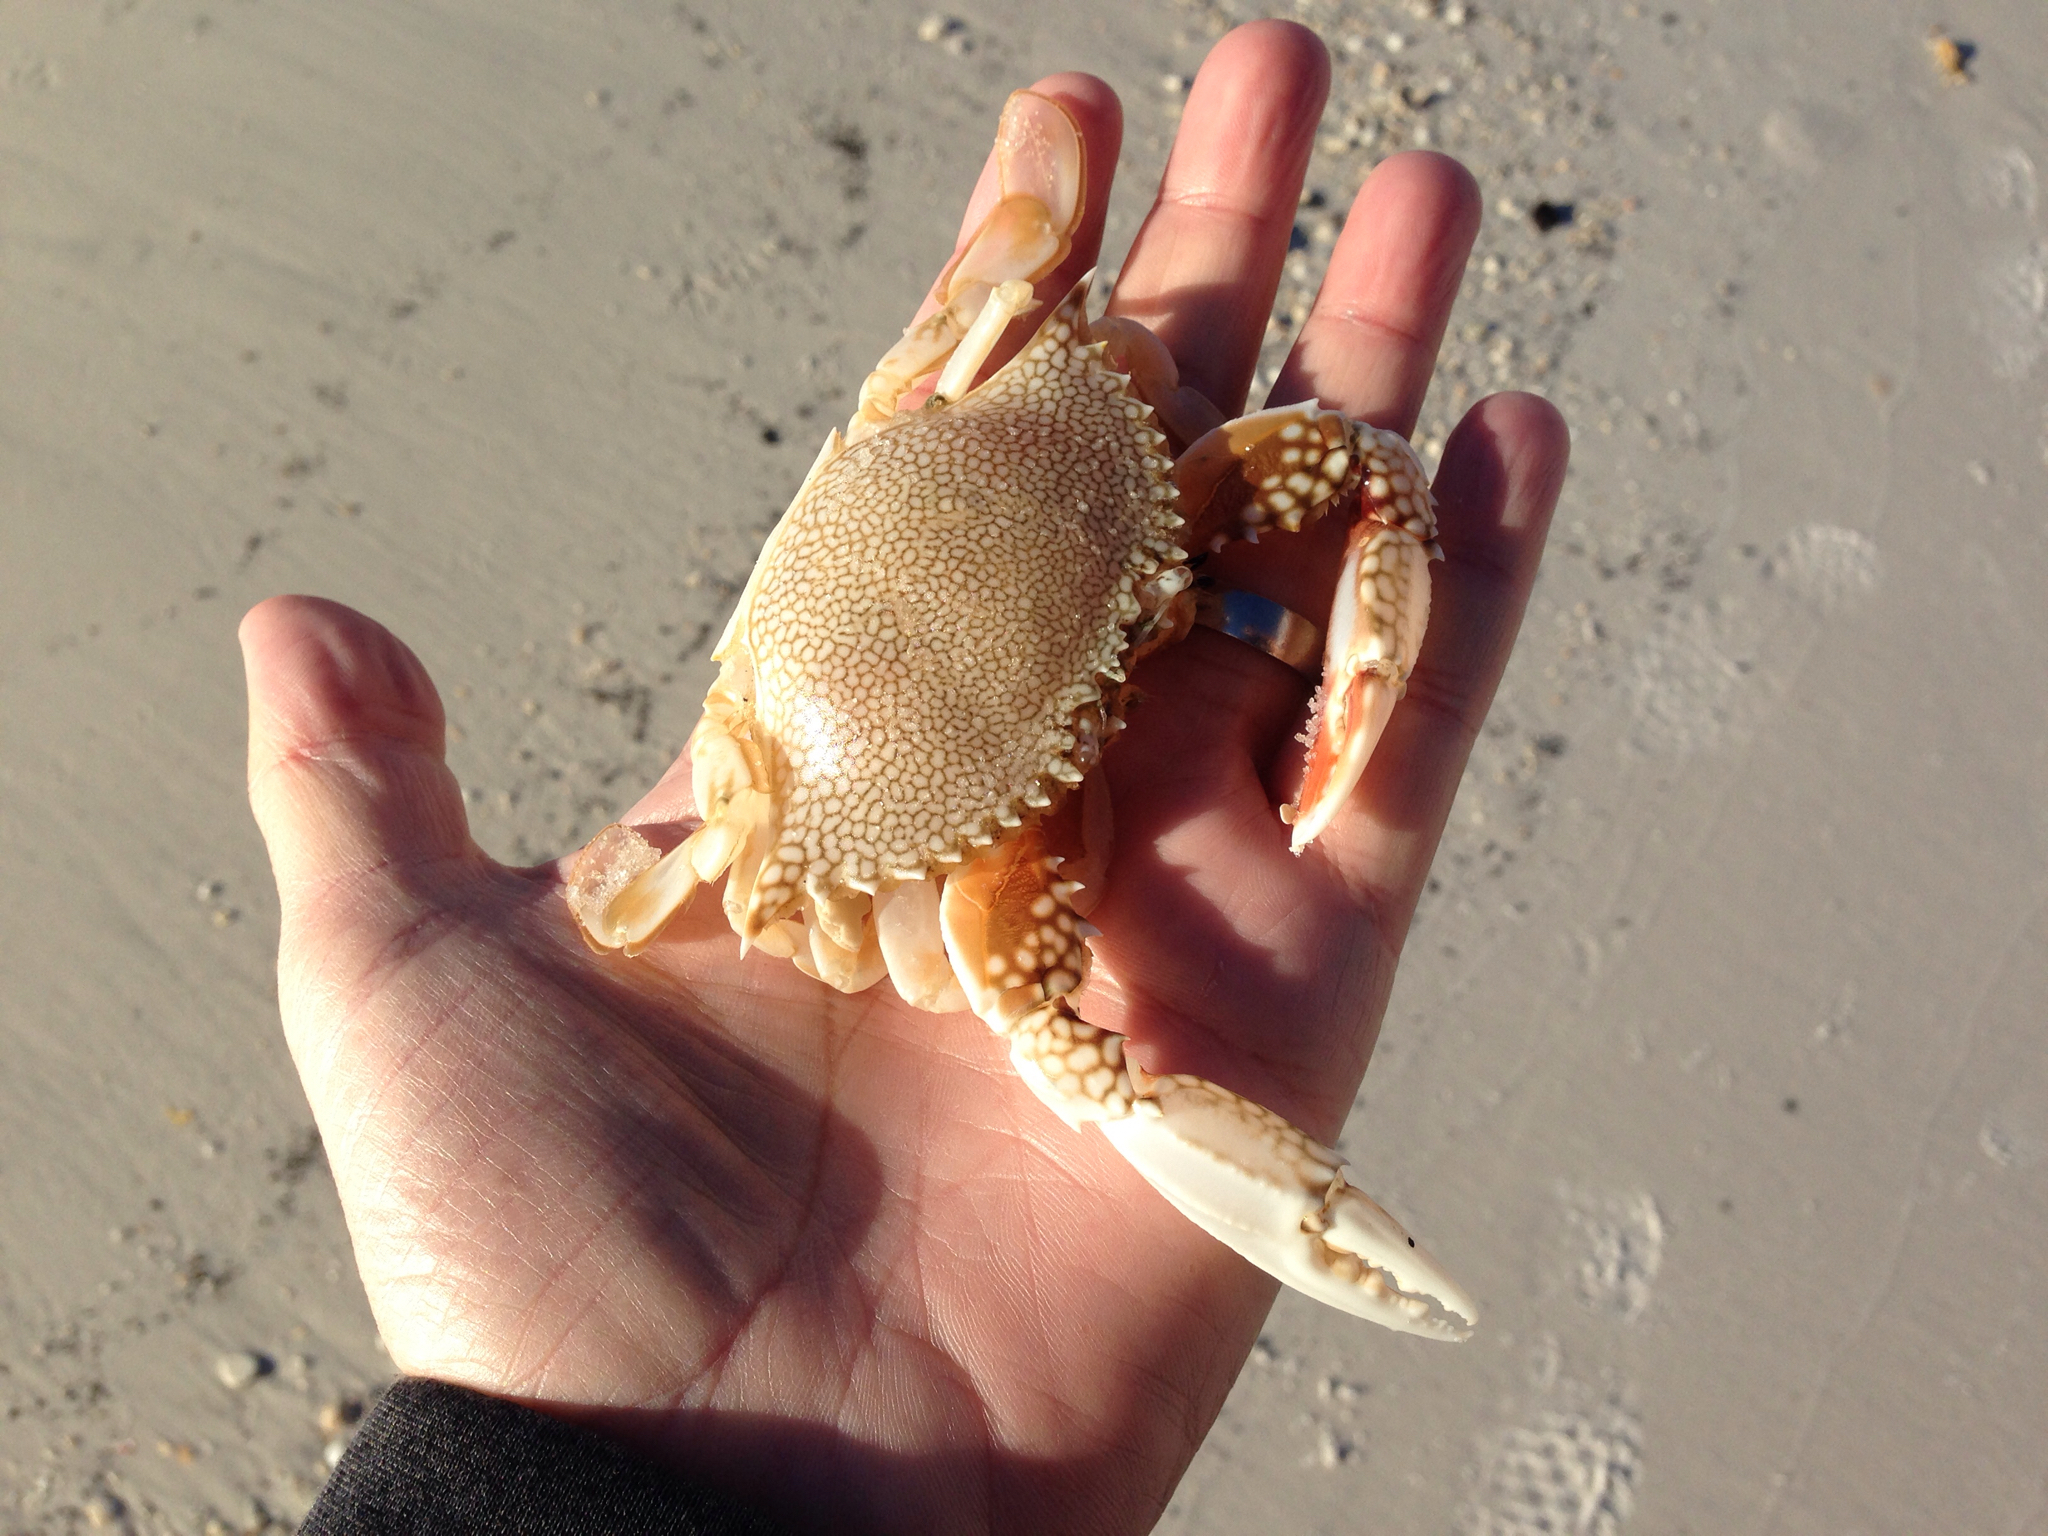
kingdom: Animalia
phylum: Arthropoda
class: Malacostraca
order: Decapoda
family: Portunidae
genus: Arenaeus
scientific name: Arenaeus cribrarius
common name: Speckled crab
